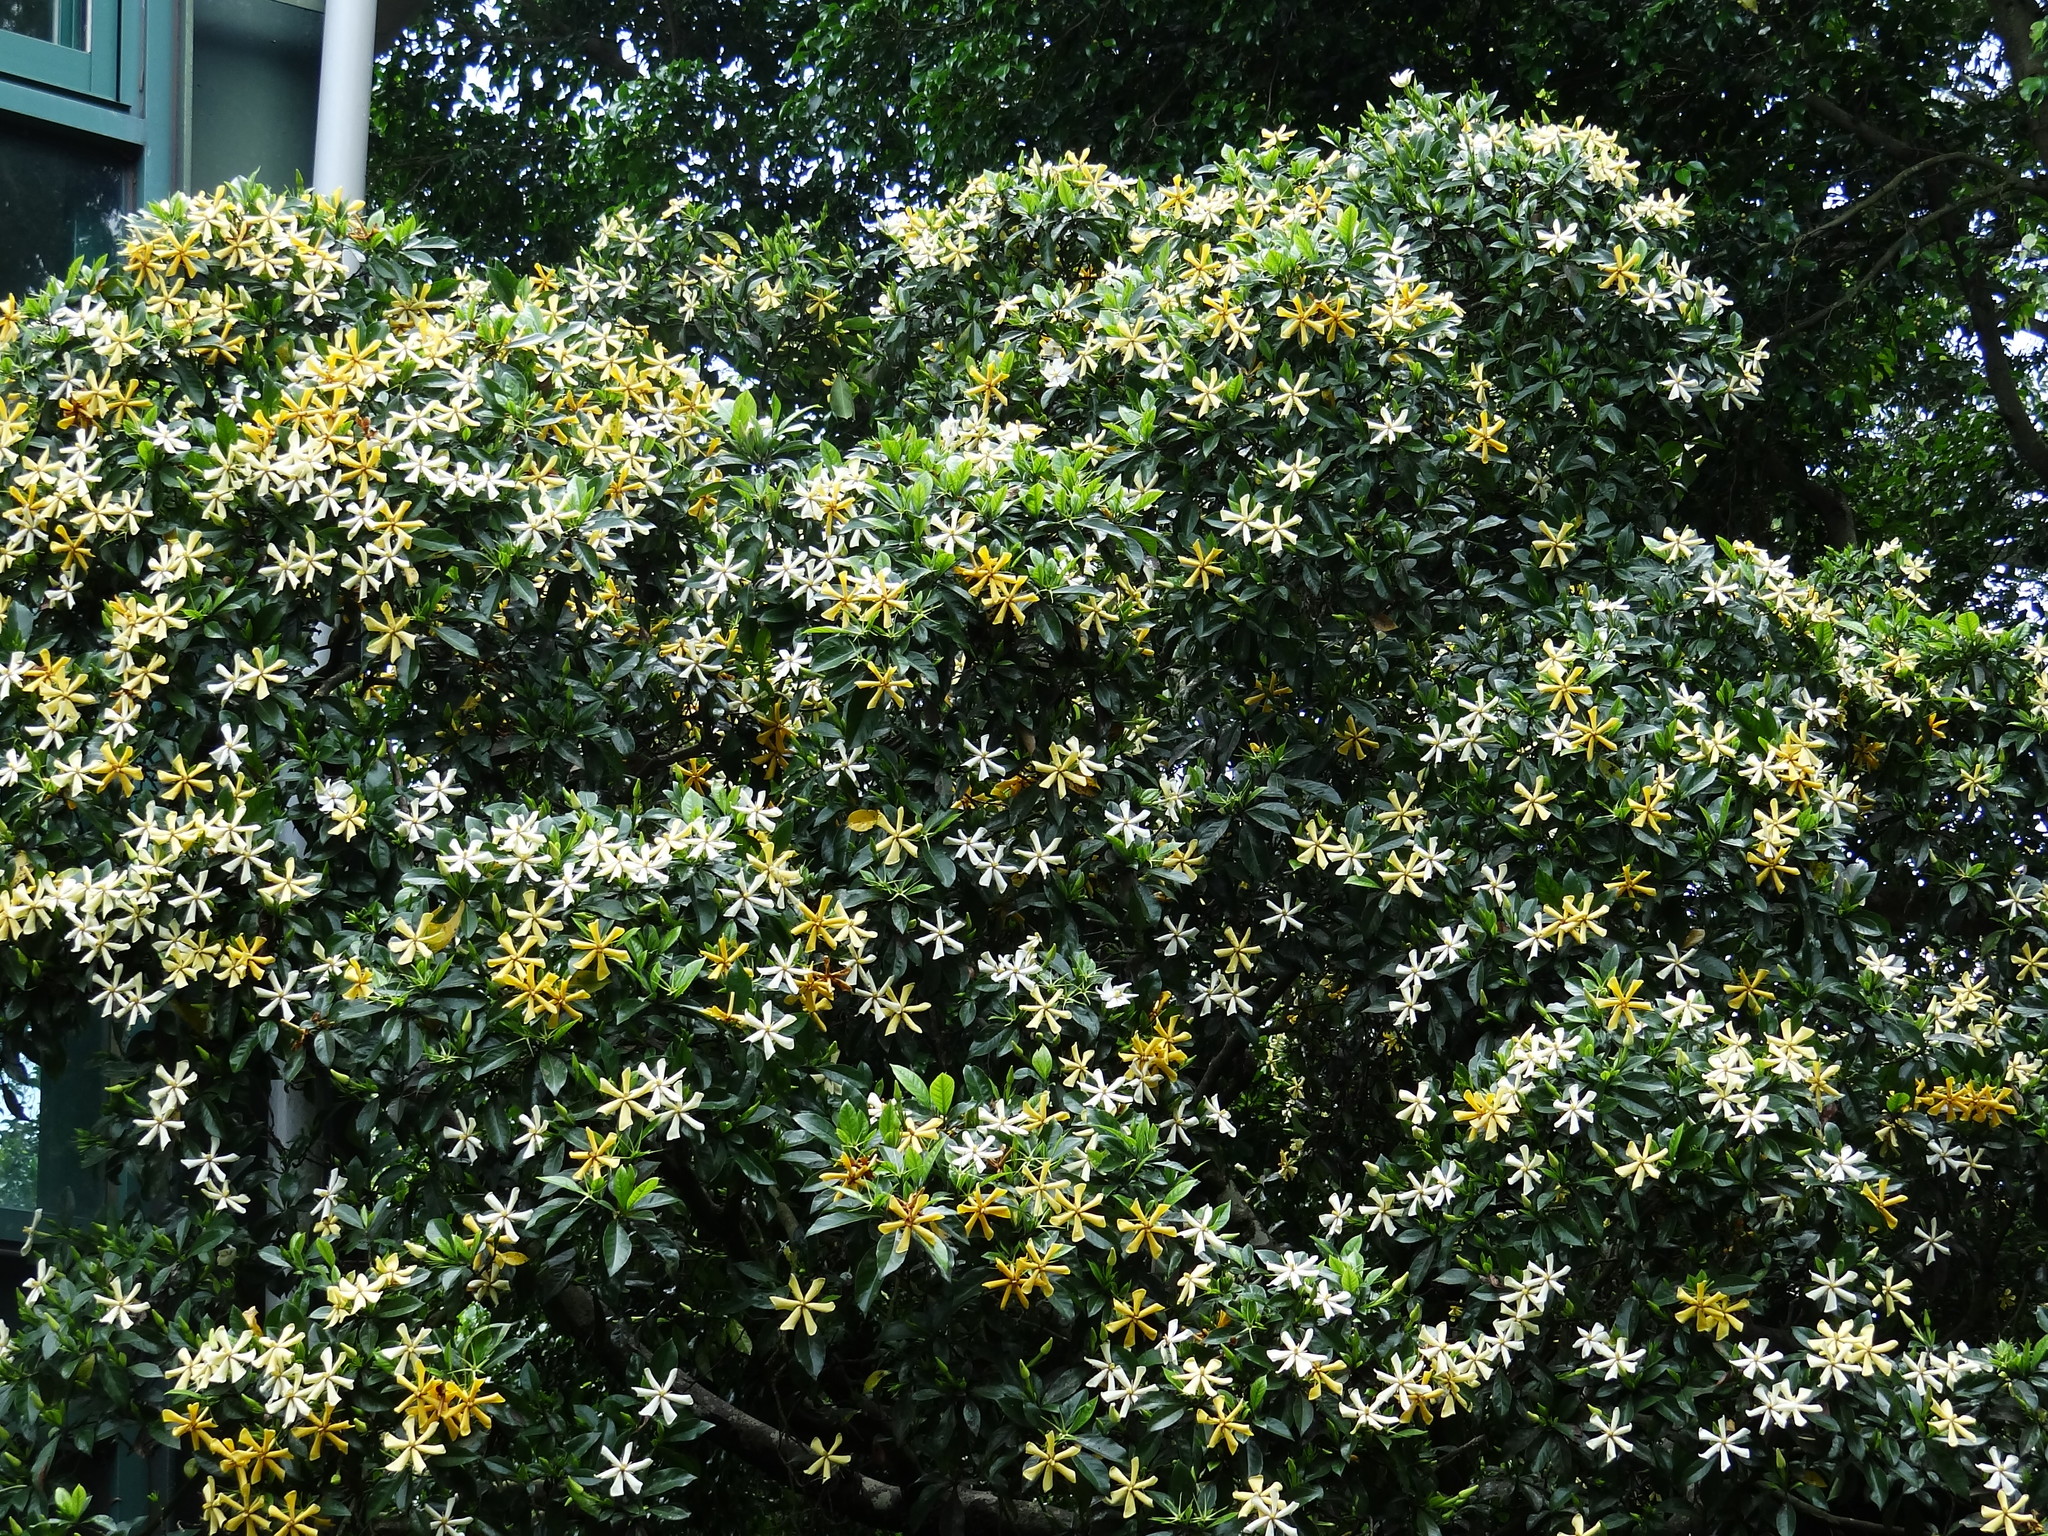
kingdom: Plantae
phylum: Tracheophyta
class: Magnoliopsida
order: Gentianales
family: Rubiaceae
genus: Gardenia
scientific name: Gardenia jasminoides
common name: Cape-jasmine
